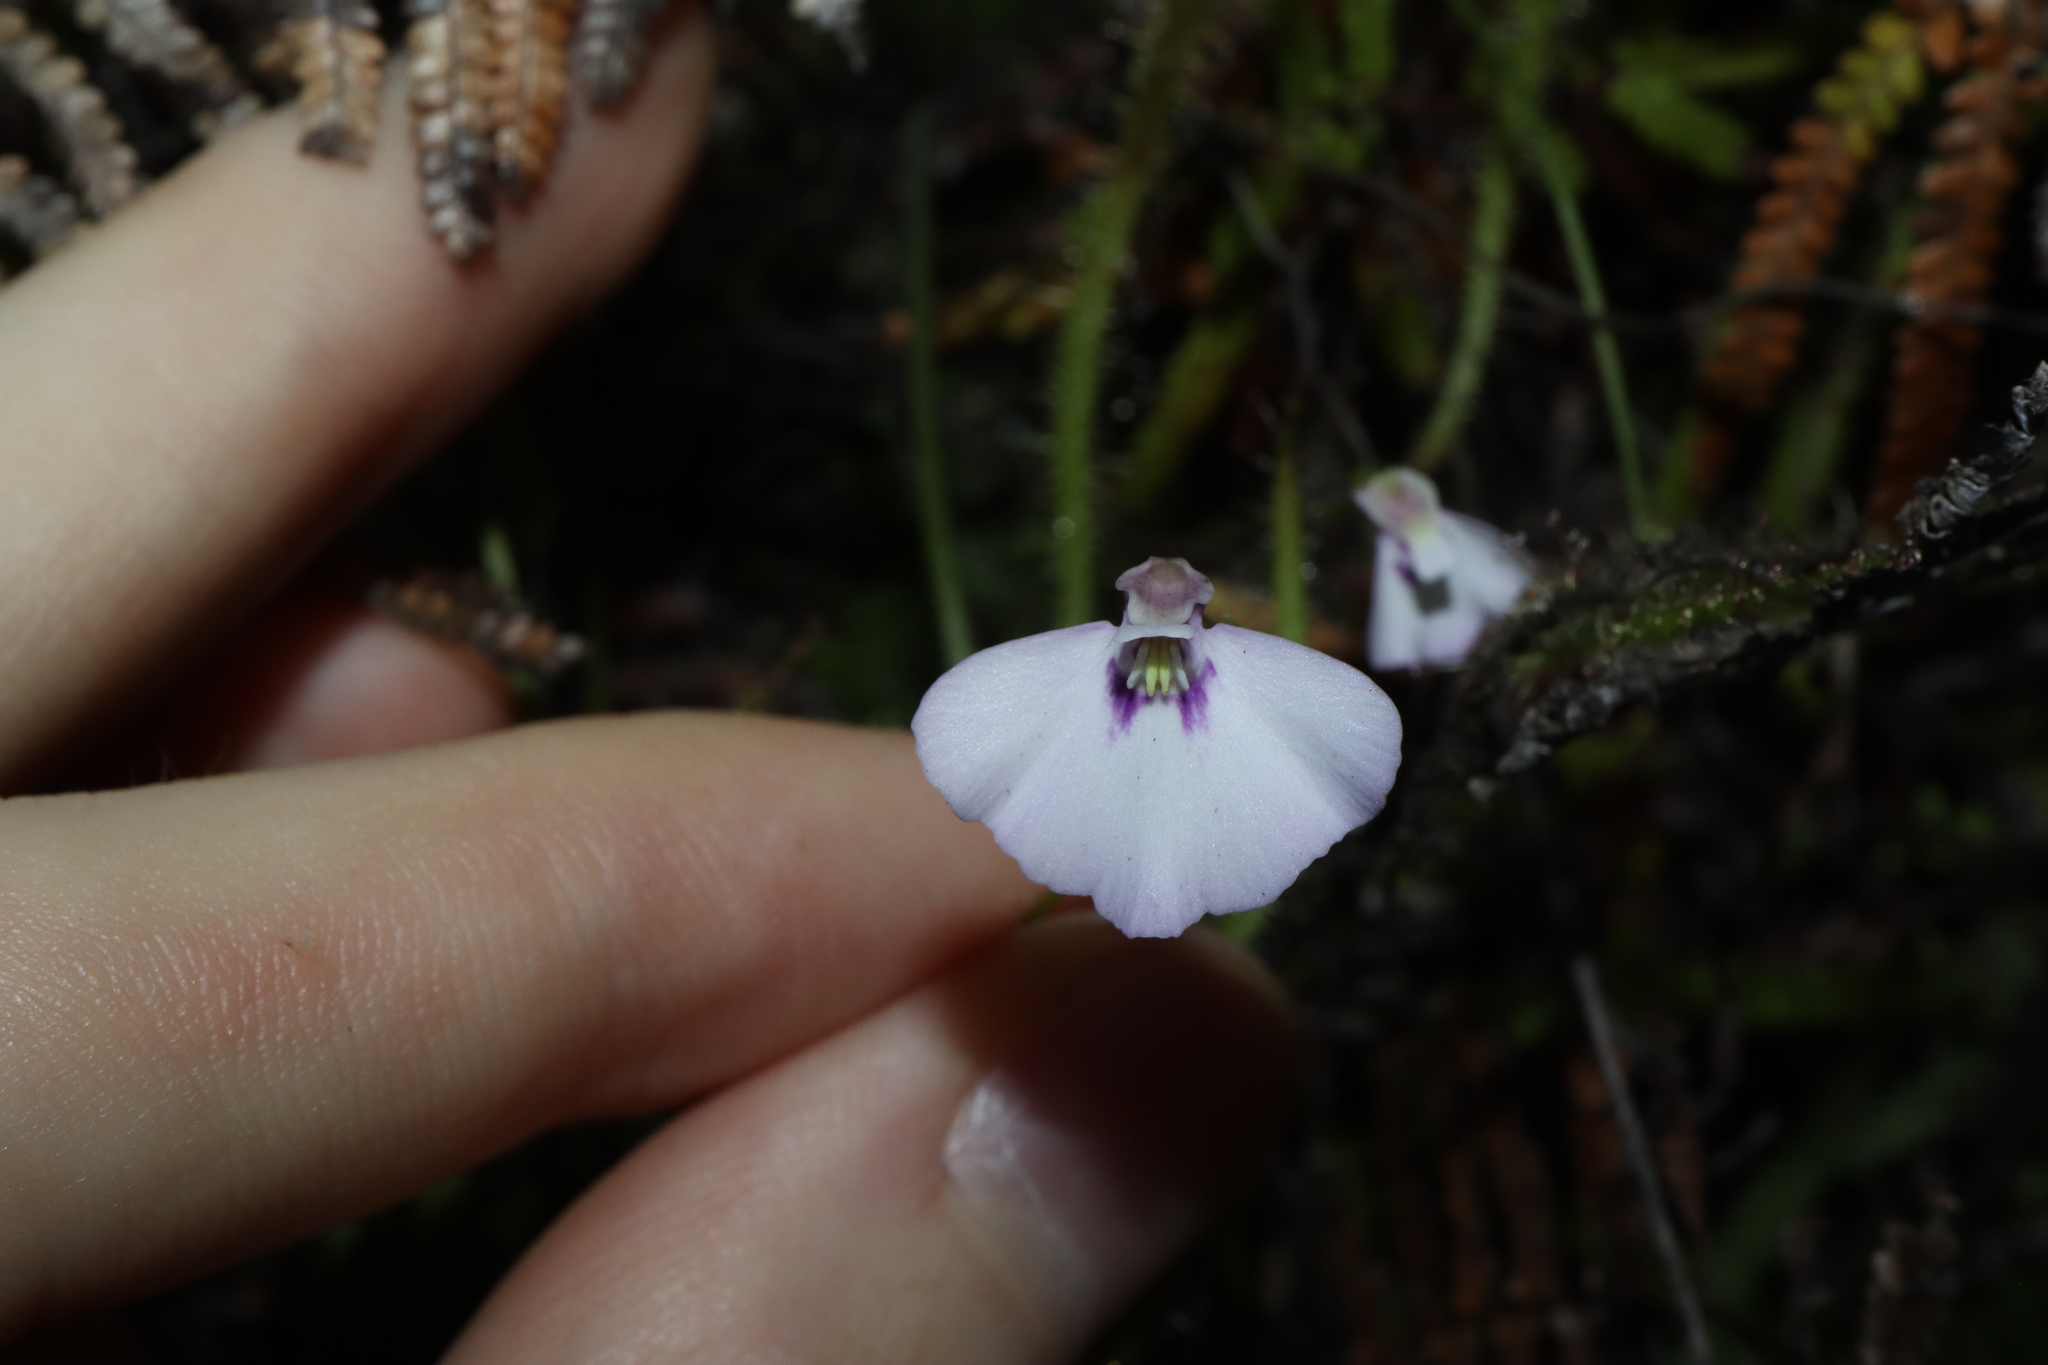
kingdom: Plantae
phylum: Tracheophyta
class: Magnoliopsida
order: Lamiales
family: Lentibulariaceae
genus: Utricularia
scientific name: Utricularia uniflora
